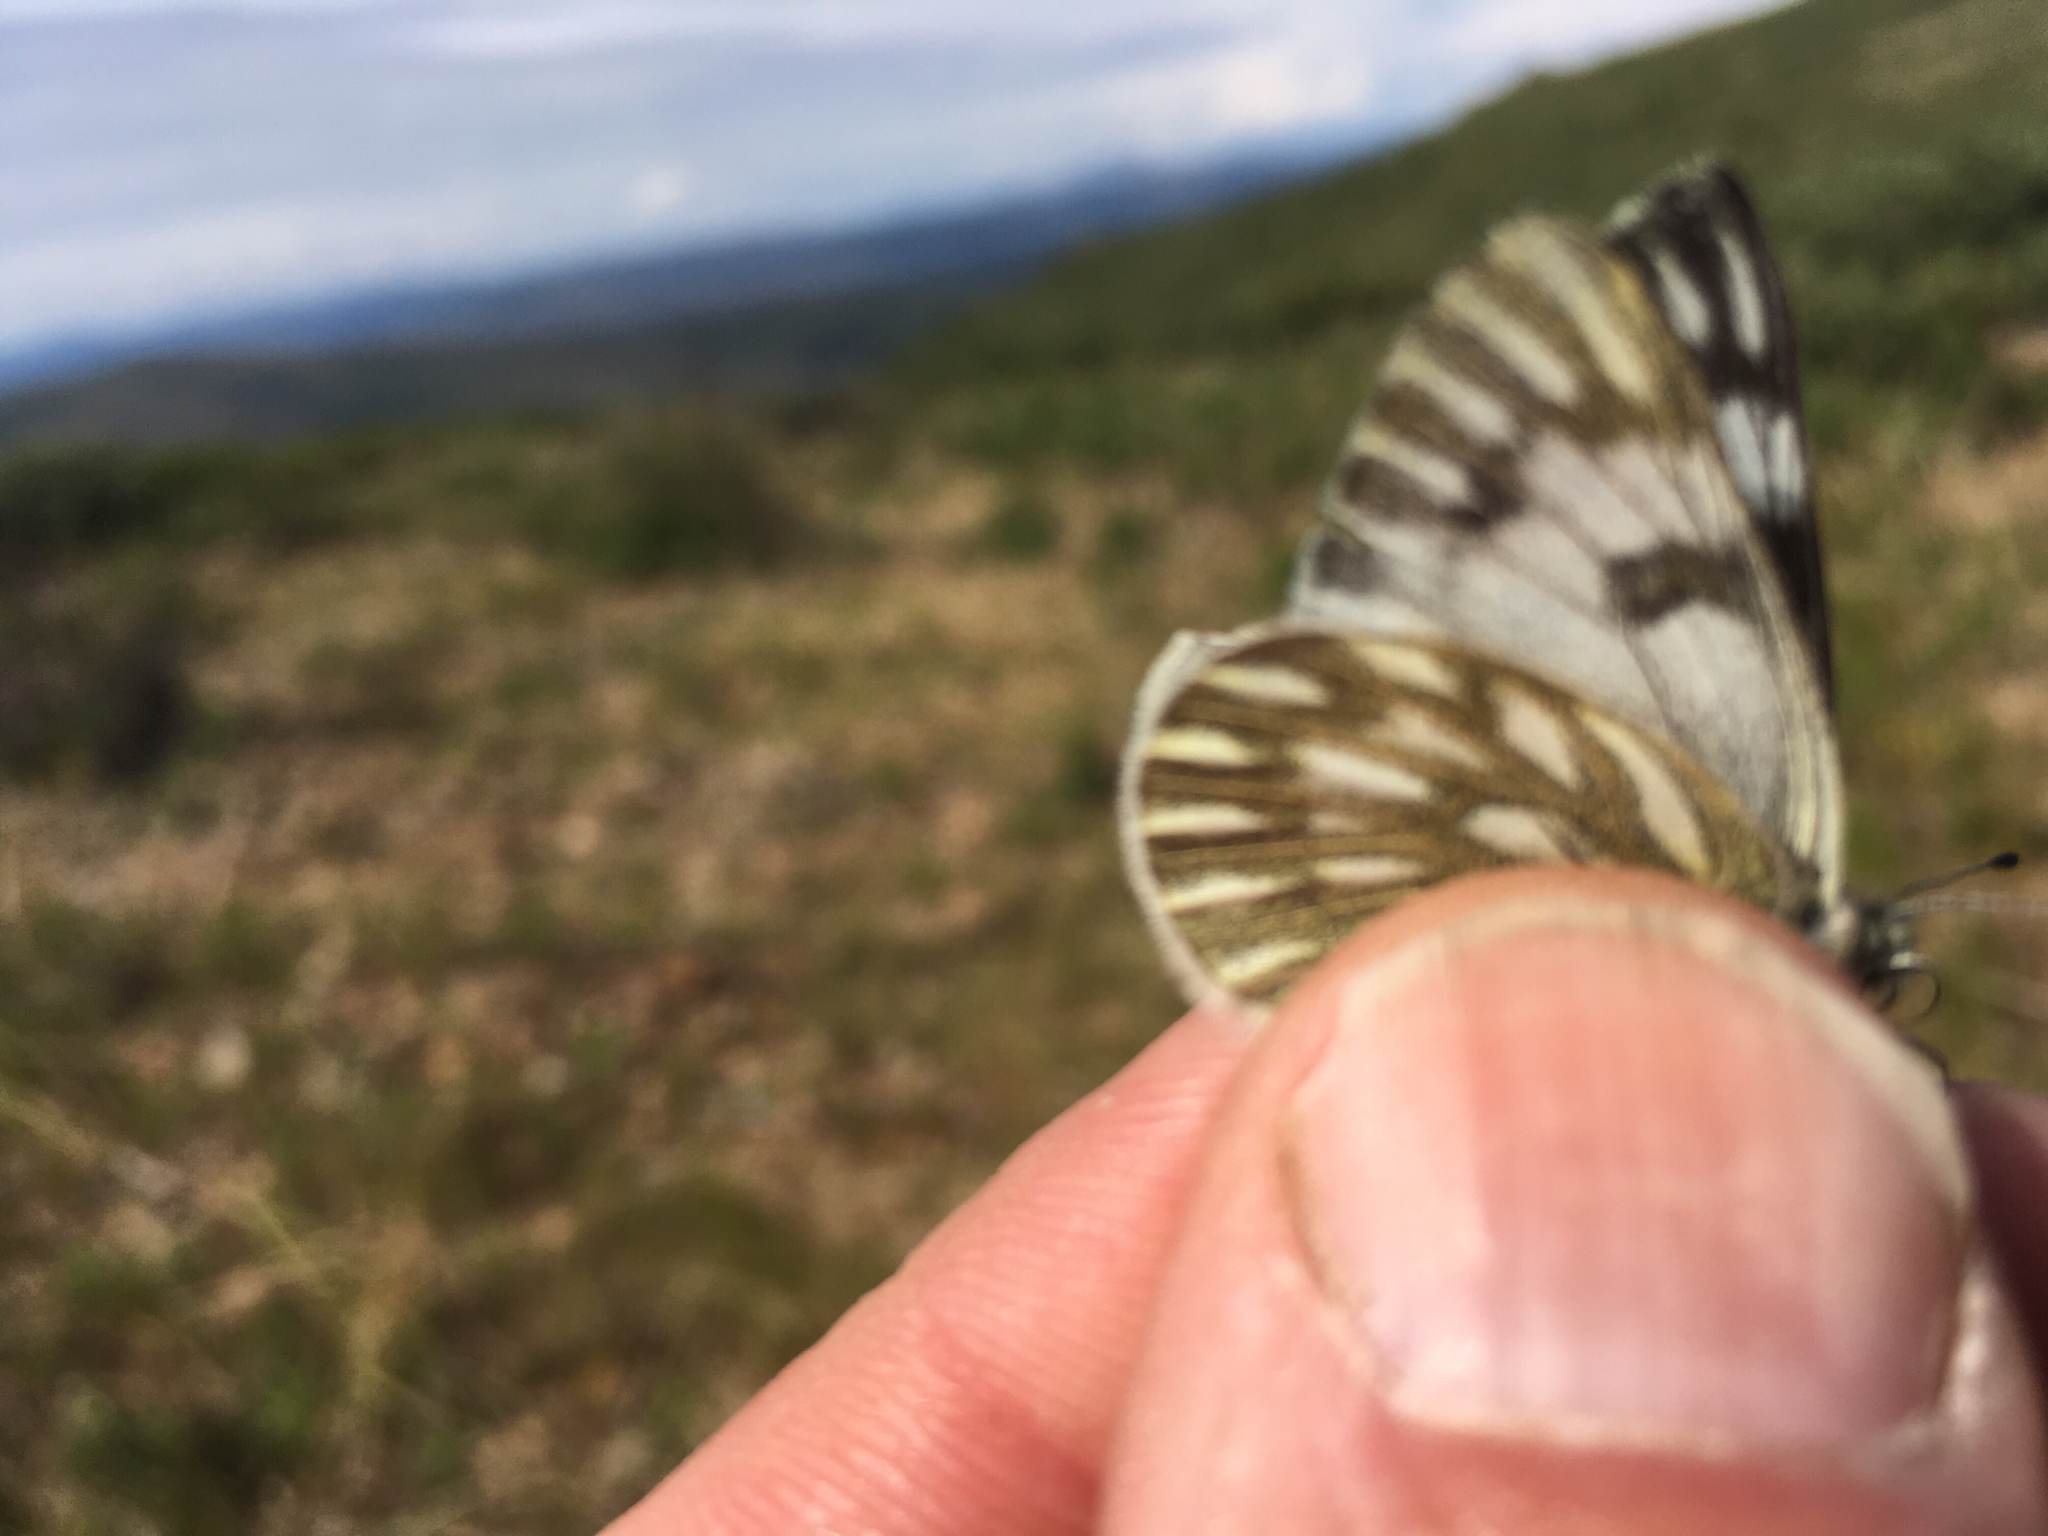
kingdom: Animalia
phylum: Arthropoda
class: Insecta
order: Lepidoptera
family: Pieridae
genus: Pontia
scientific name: Pontia occidentalis
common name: Western white
